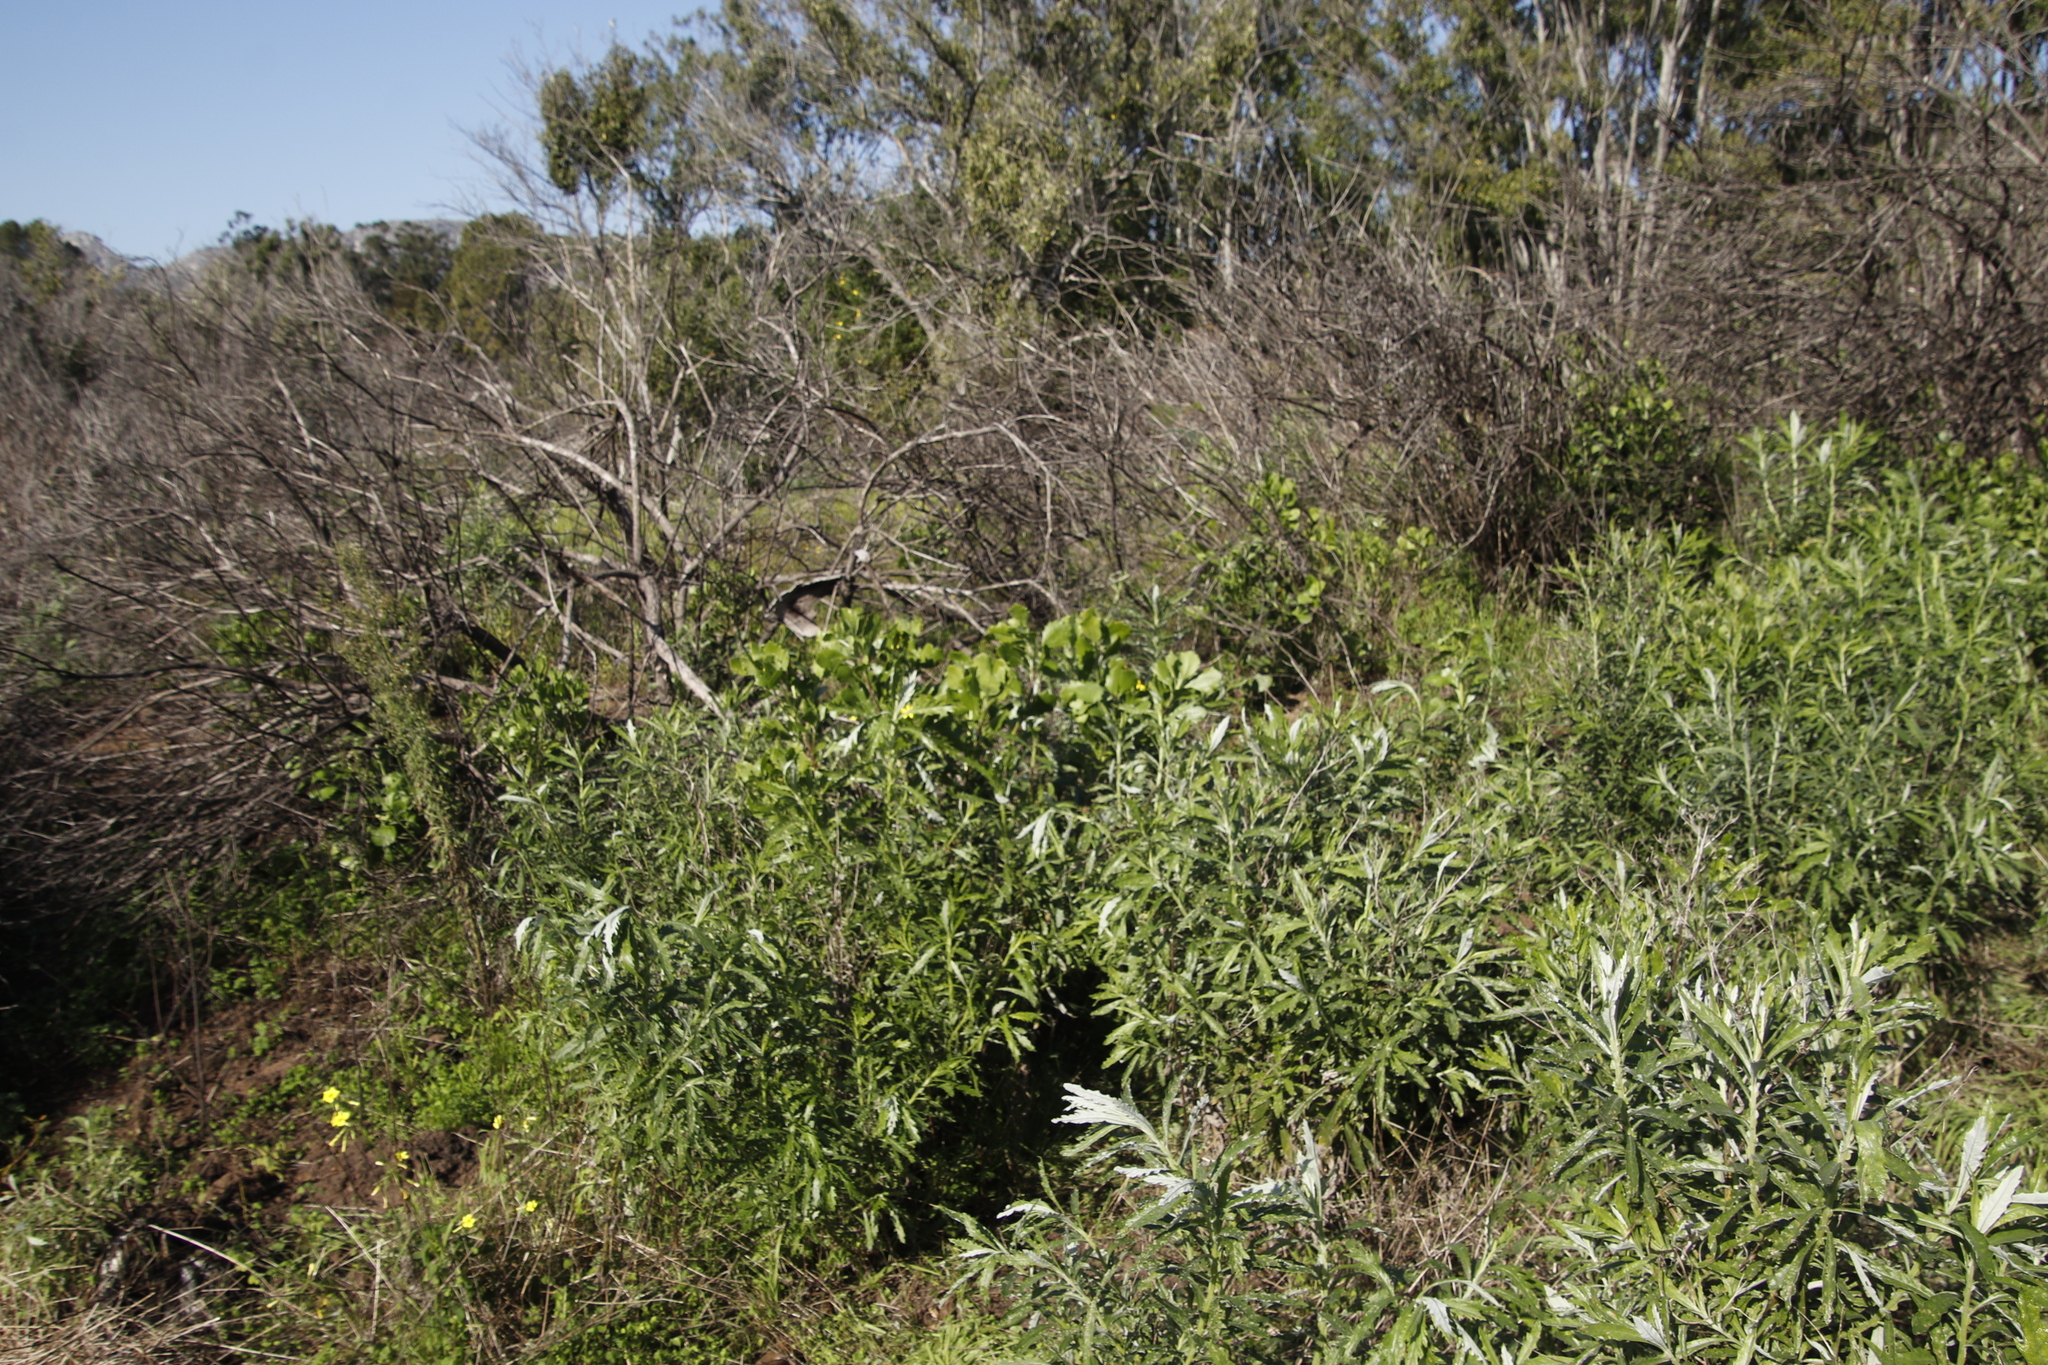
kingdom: Plantae
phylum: Tracheophyta
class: Magnoliopsida
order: Asterales
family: Asteraceae
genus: Senecio
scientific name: Senecio pterophorus
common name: Shoddy ragwort
